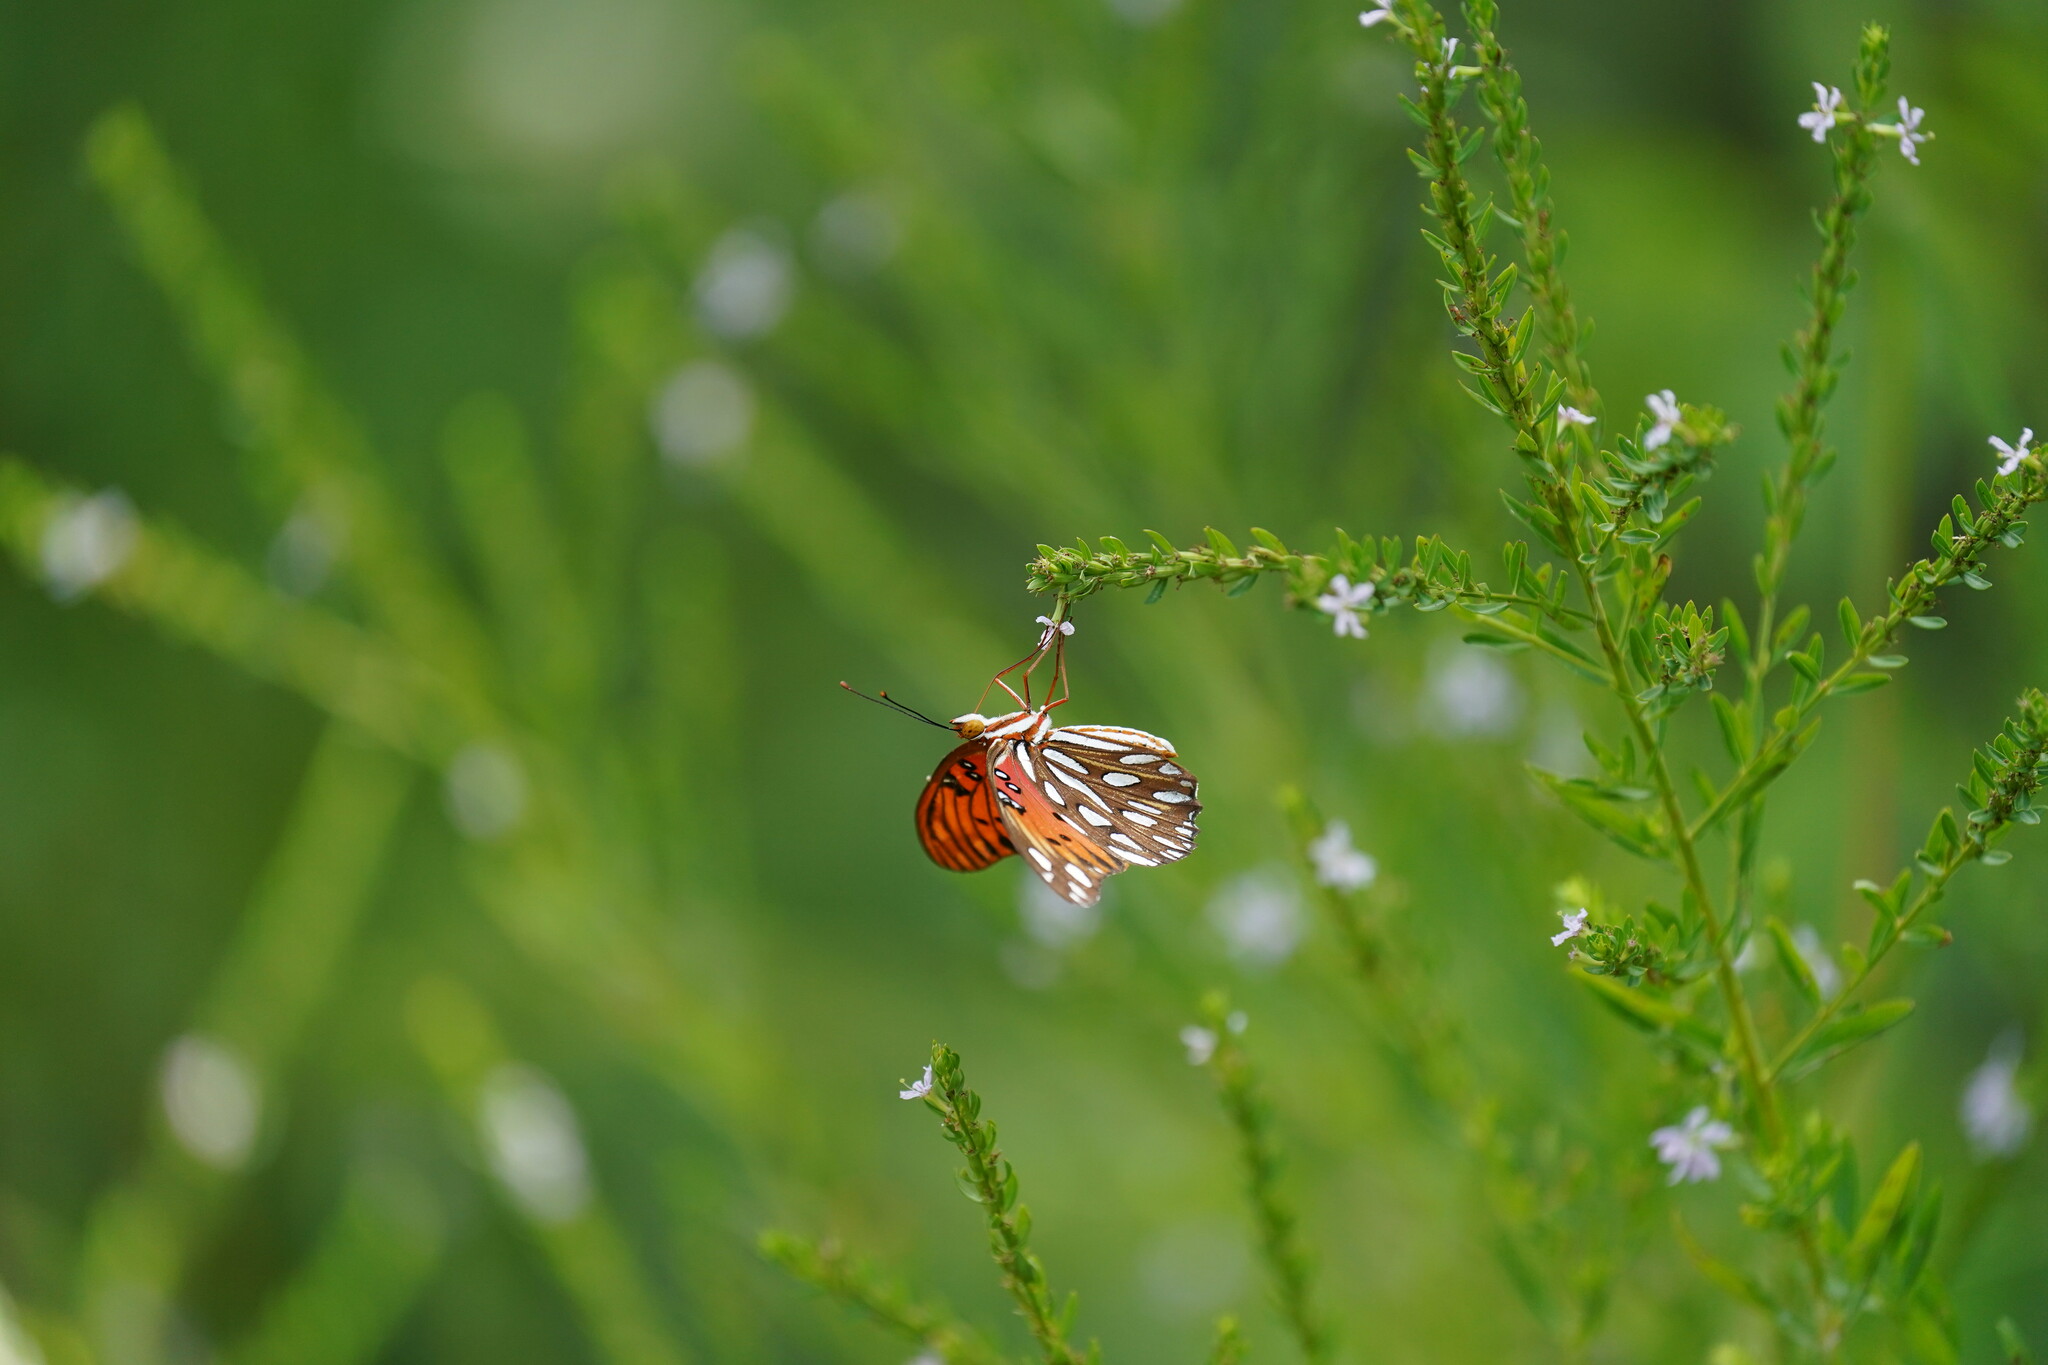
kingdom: Animalia
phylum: Arthropoda
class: Insecta
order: Lepidoptera
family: Nymphalidae
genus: Dione
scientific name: Dione vanillae
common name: Gulf fritillary
